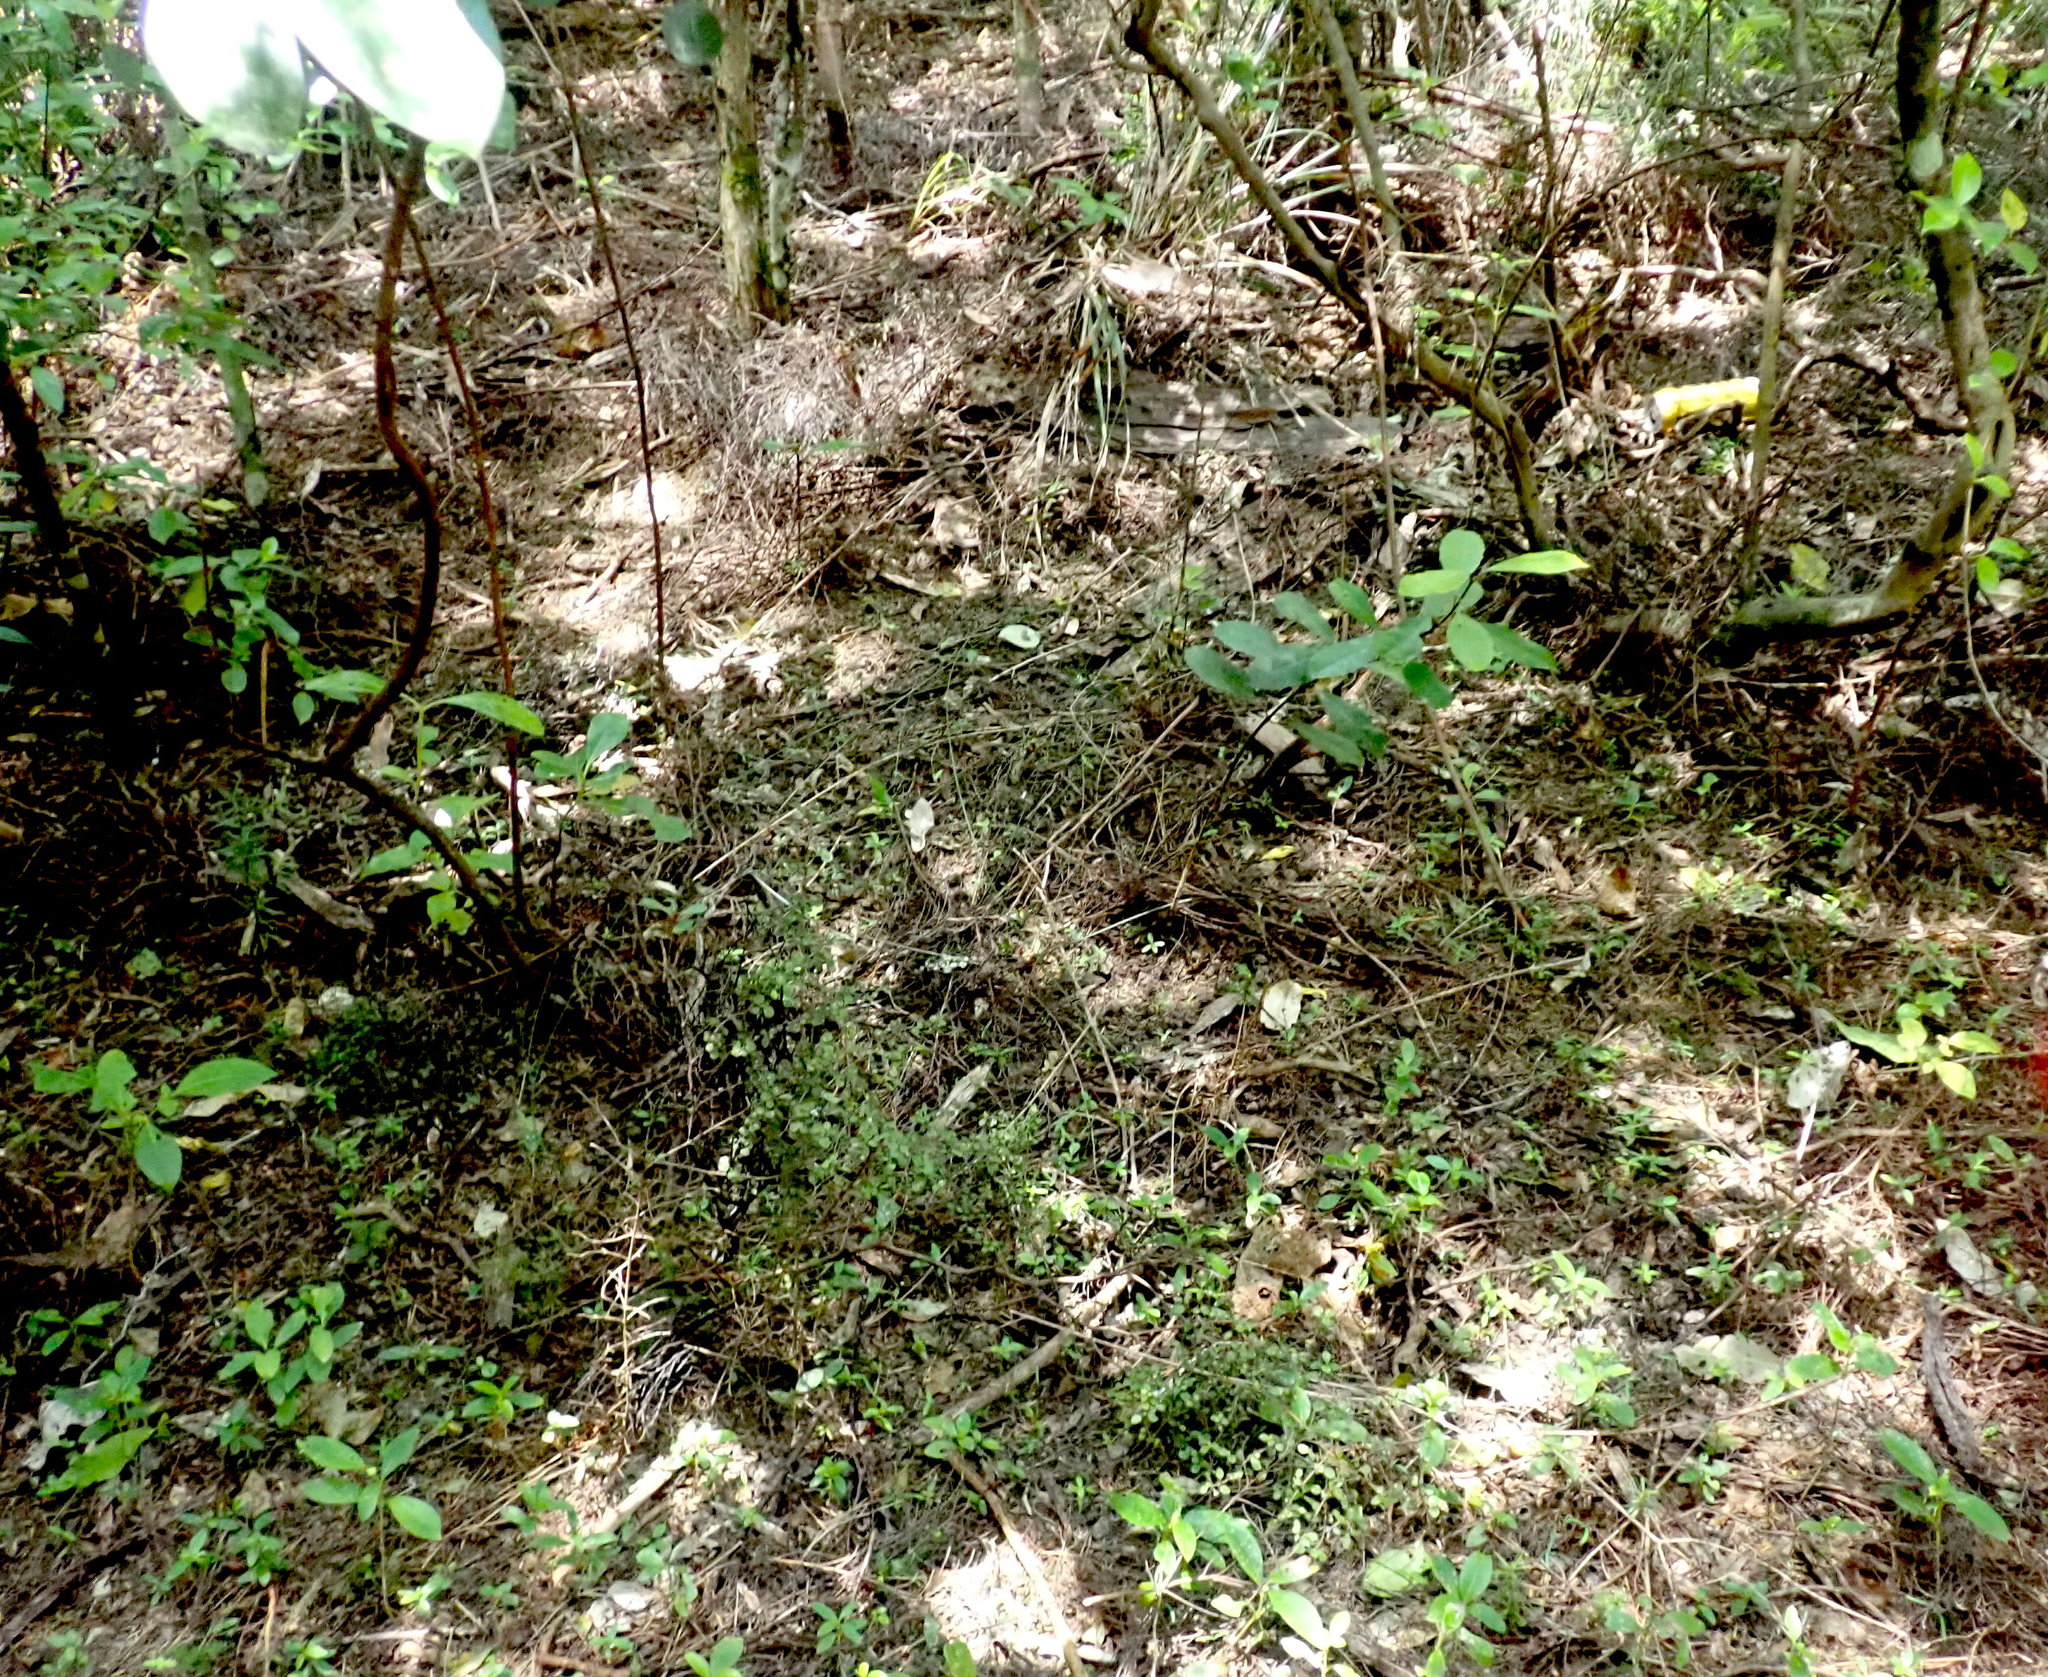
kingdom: Plantae
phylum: Tracheophyta
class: Magnoliopsida
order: Laurales
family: Monimiaceae
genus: Hedycarya
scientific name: Hedycarya arborea
